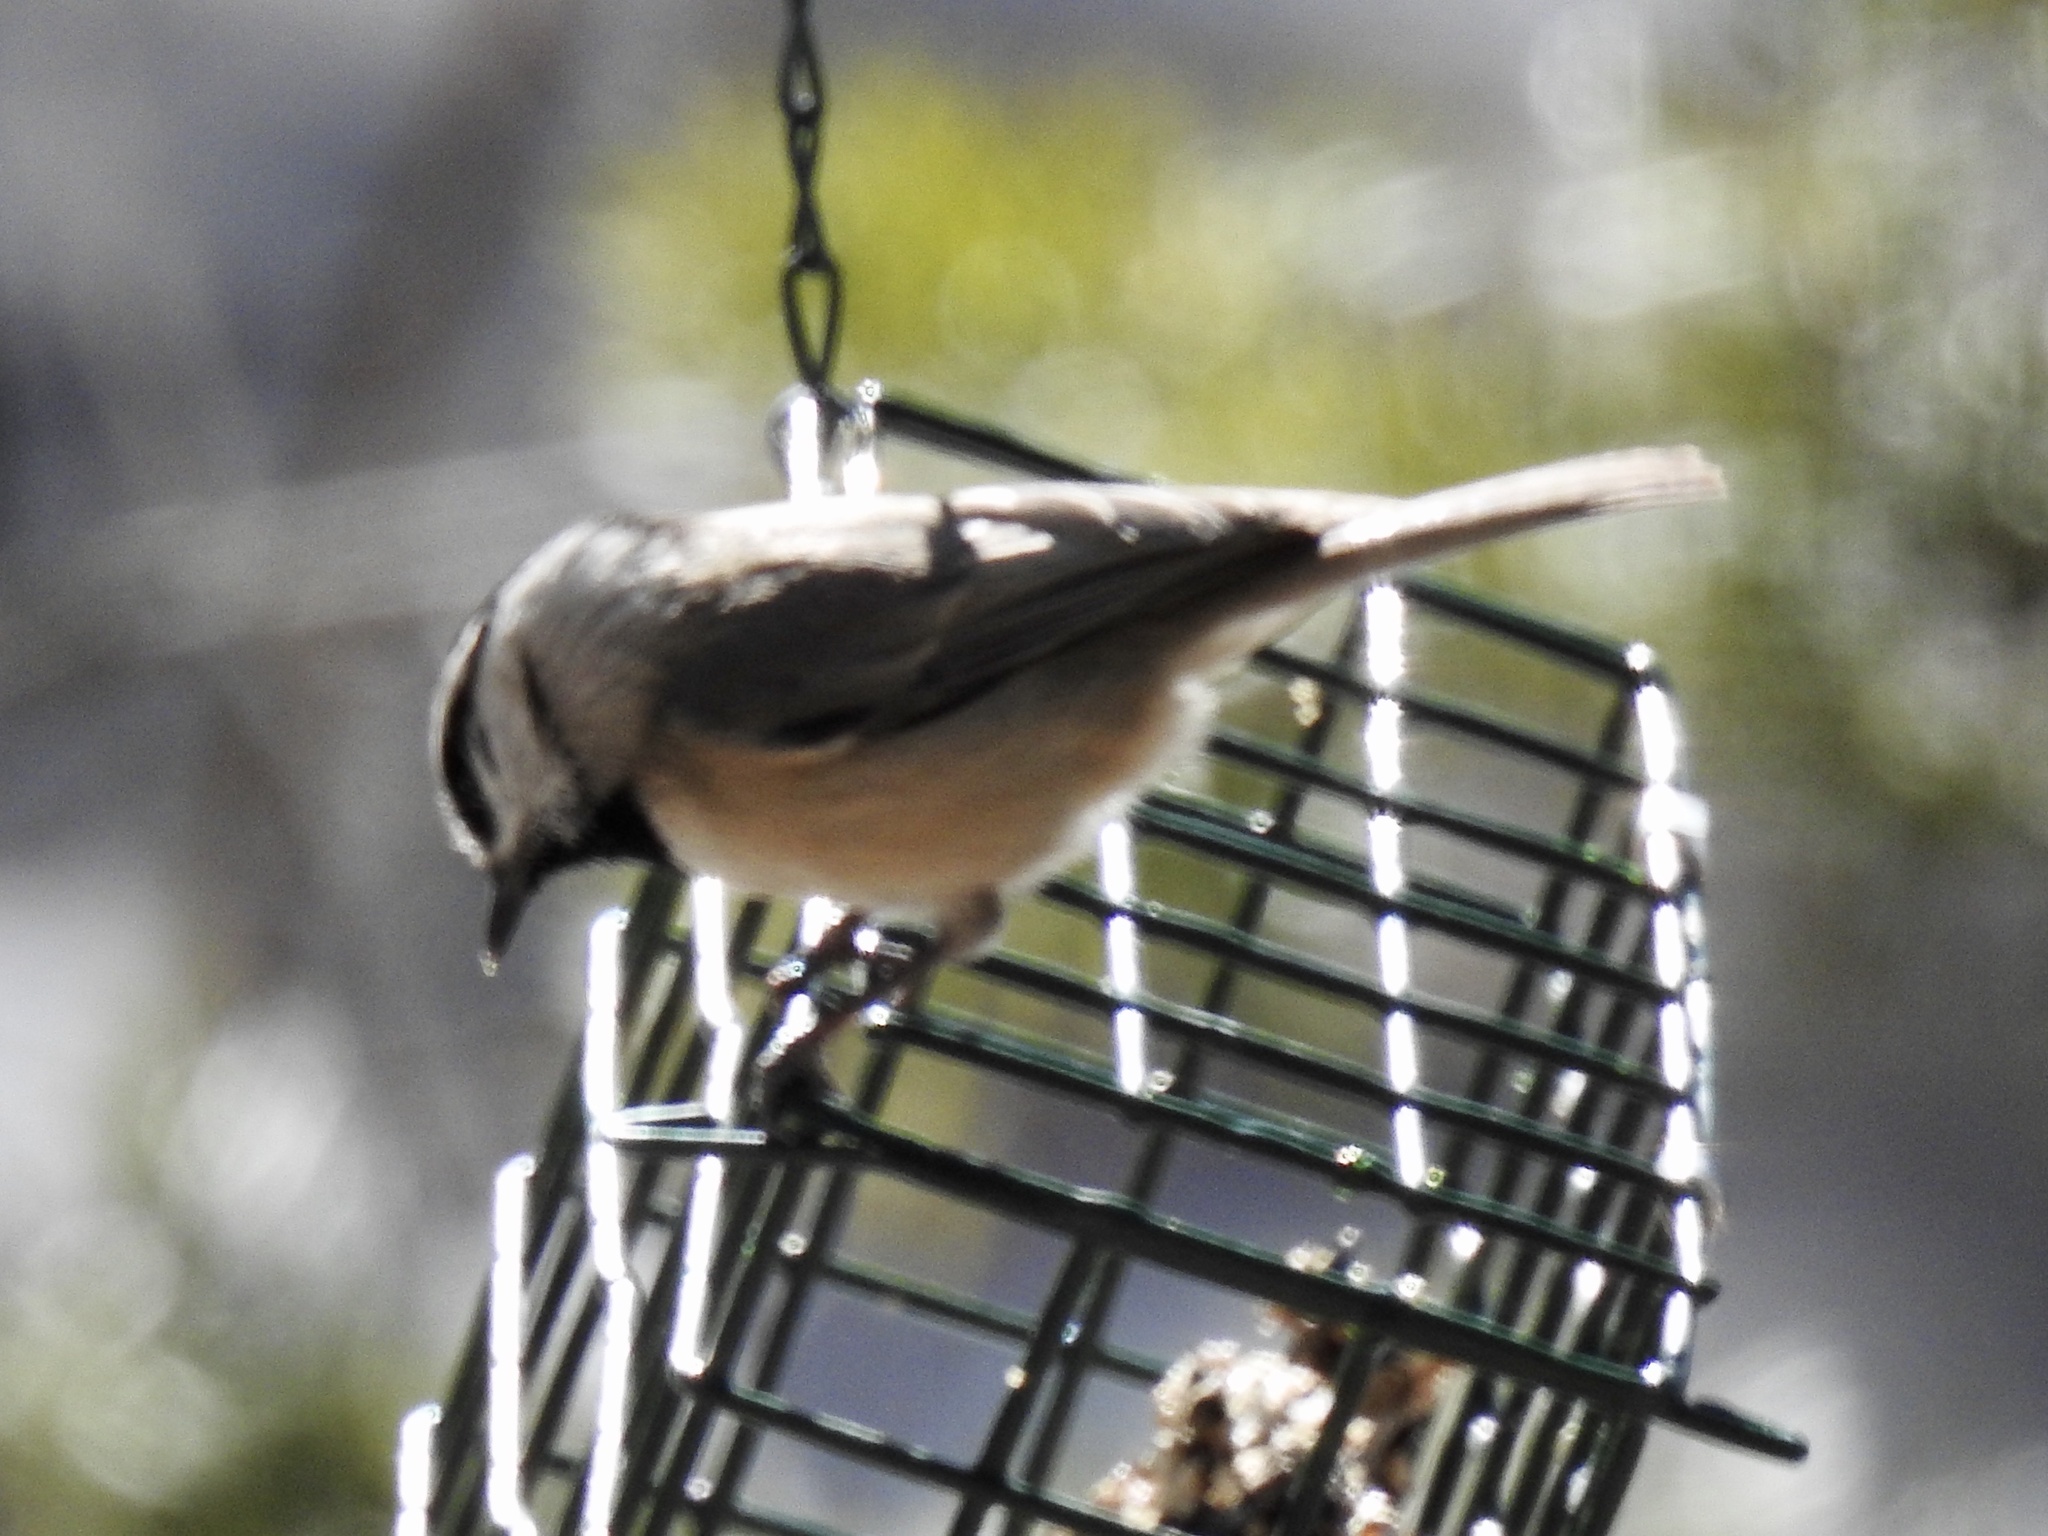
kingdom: Animalia
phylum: Chordata
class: Aves
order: Passeriformes
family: Paridae
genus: Poecile
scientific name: Poecile gambeli
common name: Mountain chickadee
